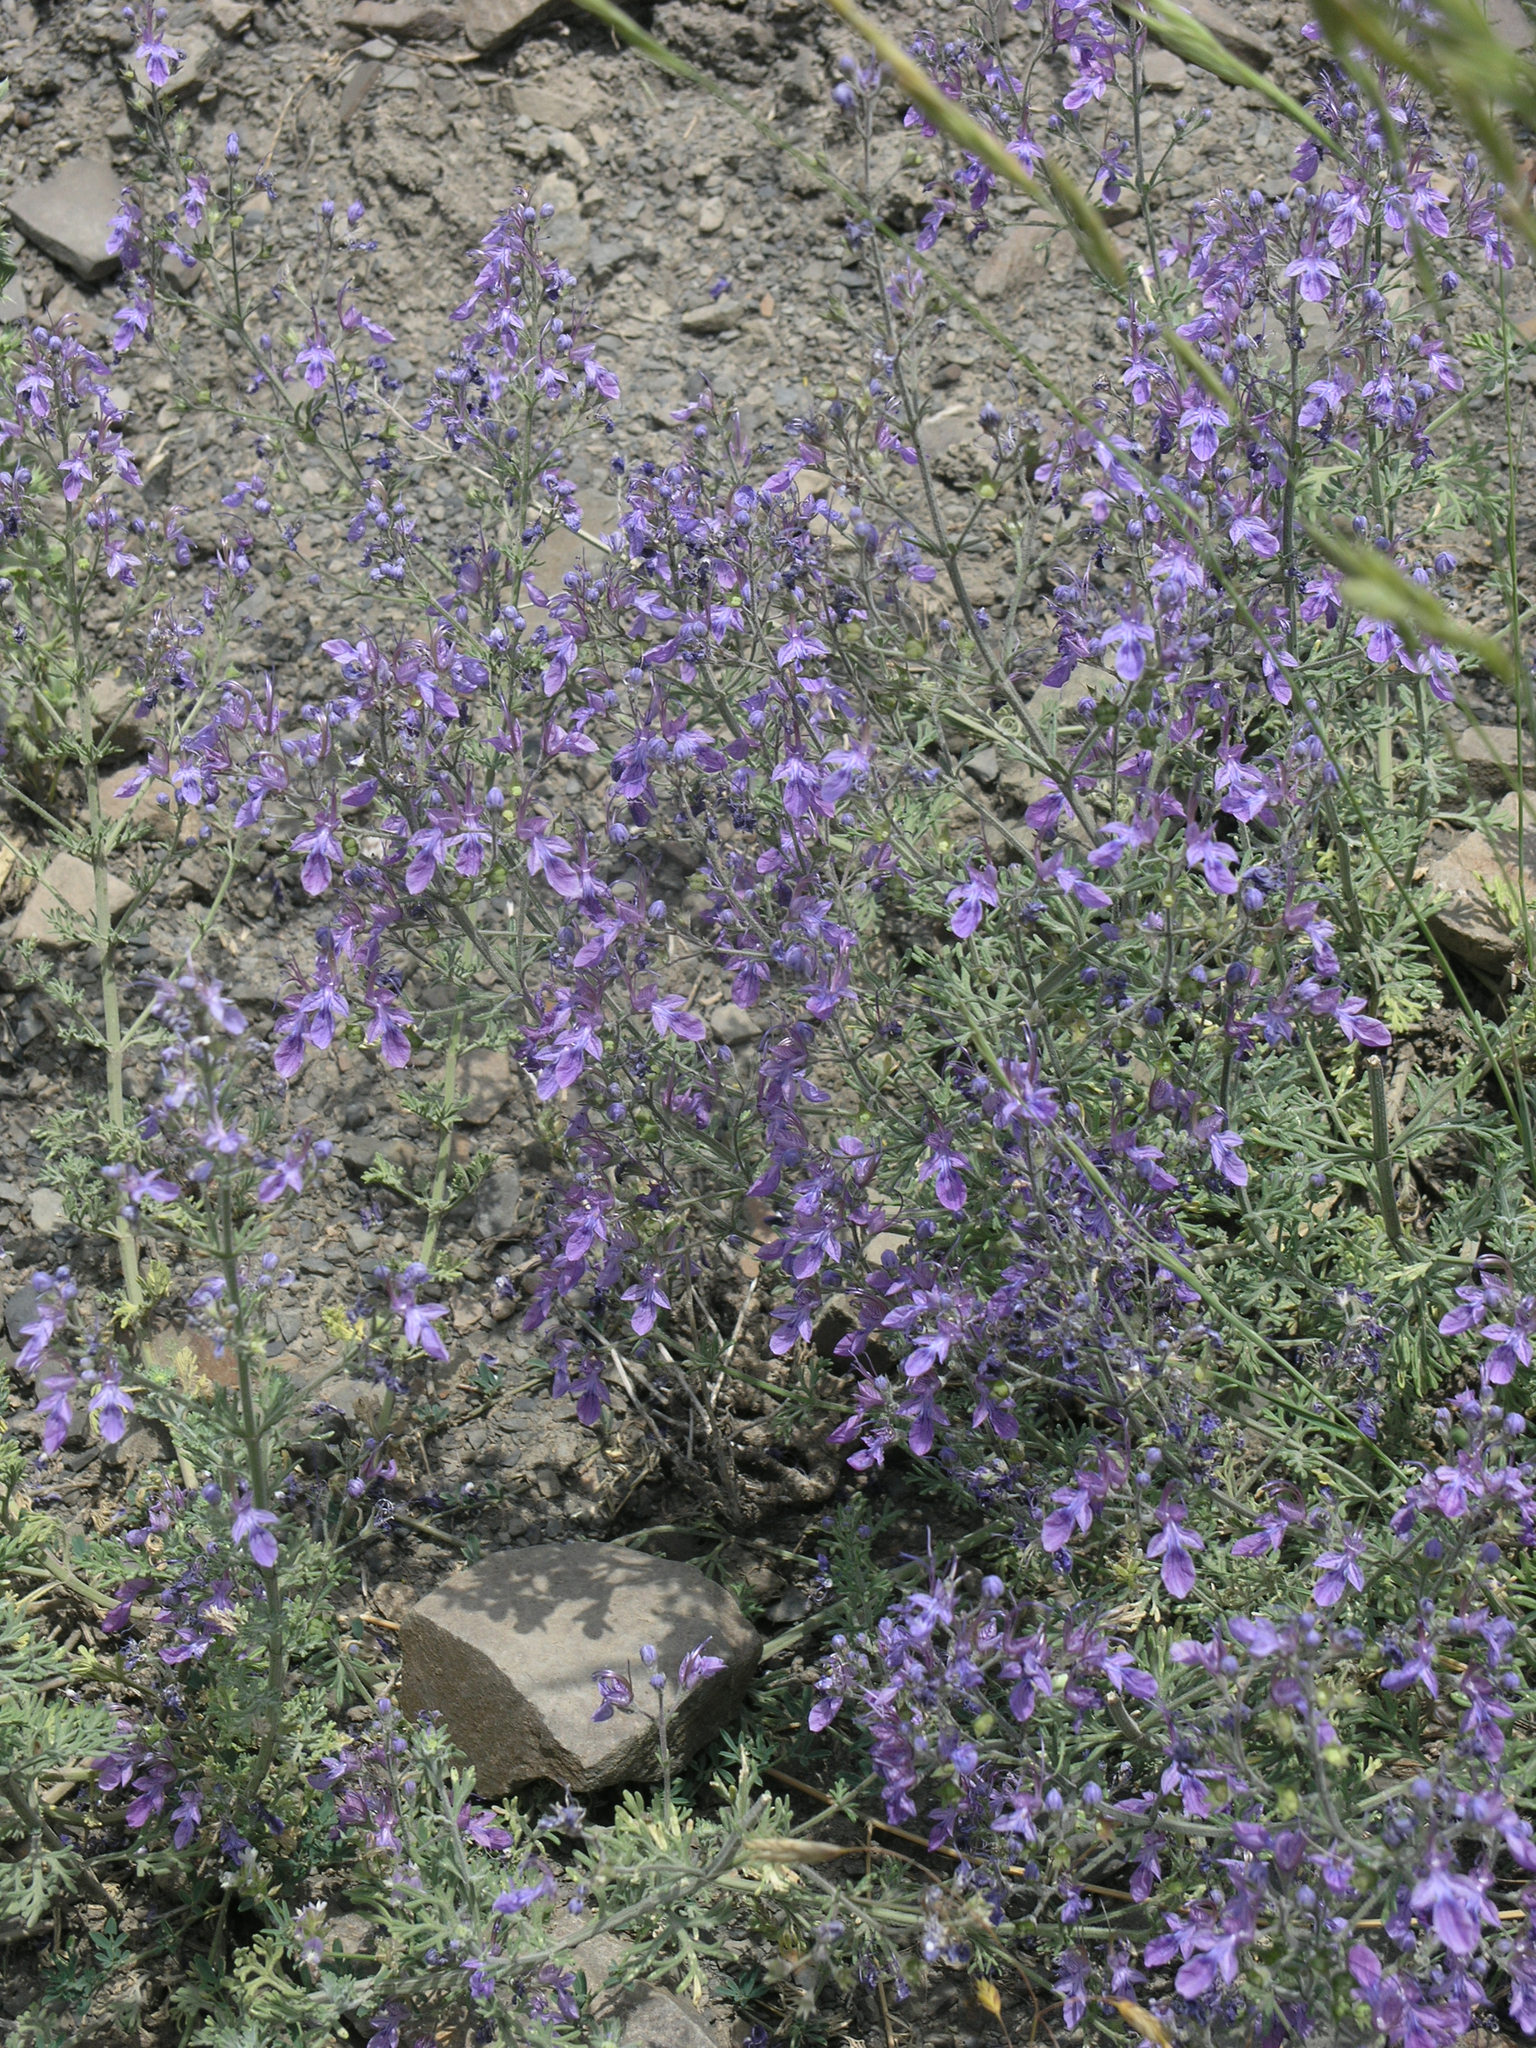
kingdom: Plantae
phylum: Tracheophyta
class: Magnoliopsida
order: Lamiales
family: Lamiaceae
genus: Teucrium
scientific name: Teucrium orientale
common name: Oriental germander
